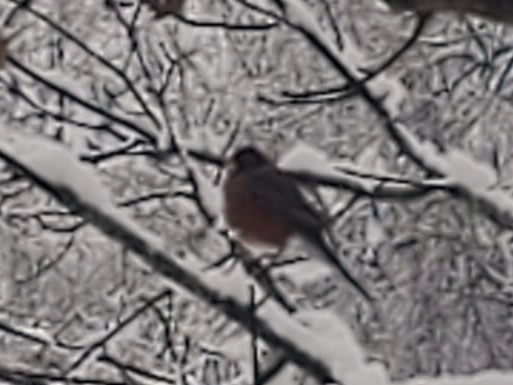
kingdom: Animalia
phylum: Chordata
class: Aves
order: Passeriformes
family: Turdidae
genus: Turdus
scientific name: Turdus migratorius
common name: American robin
